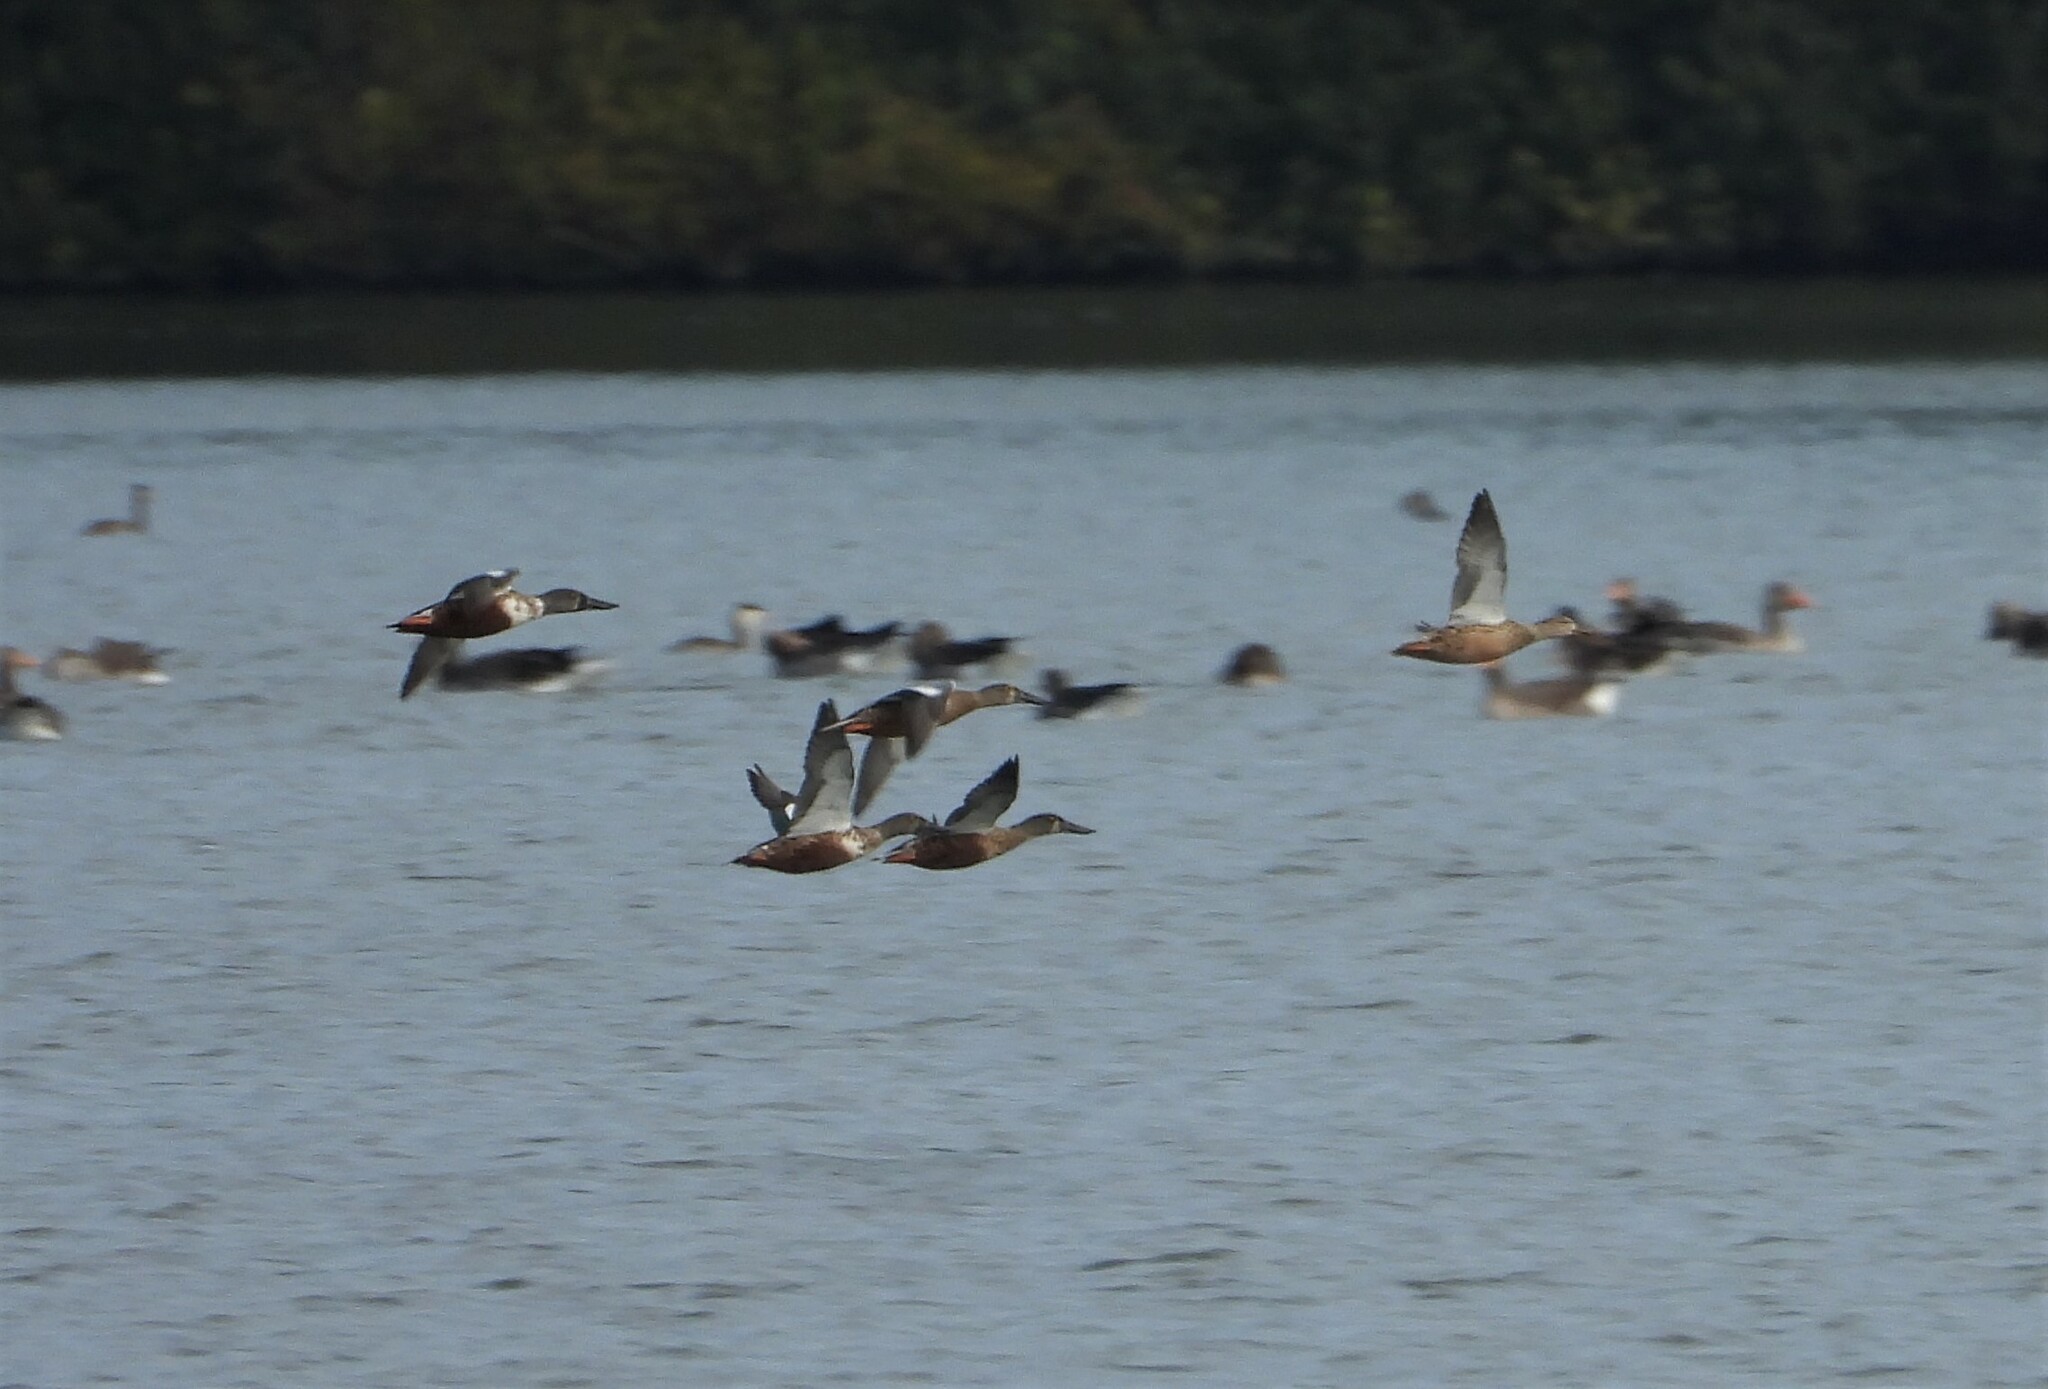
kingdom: Animalia
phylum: Chordata
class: Aves
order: Anseriformes
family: Anatidae
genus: Spatula
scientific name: Spatula clypeata
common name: Northern shoveler
